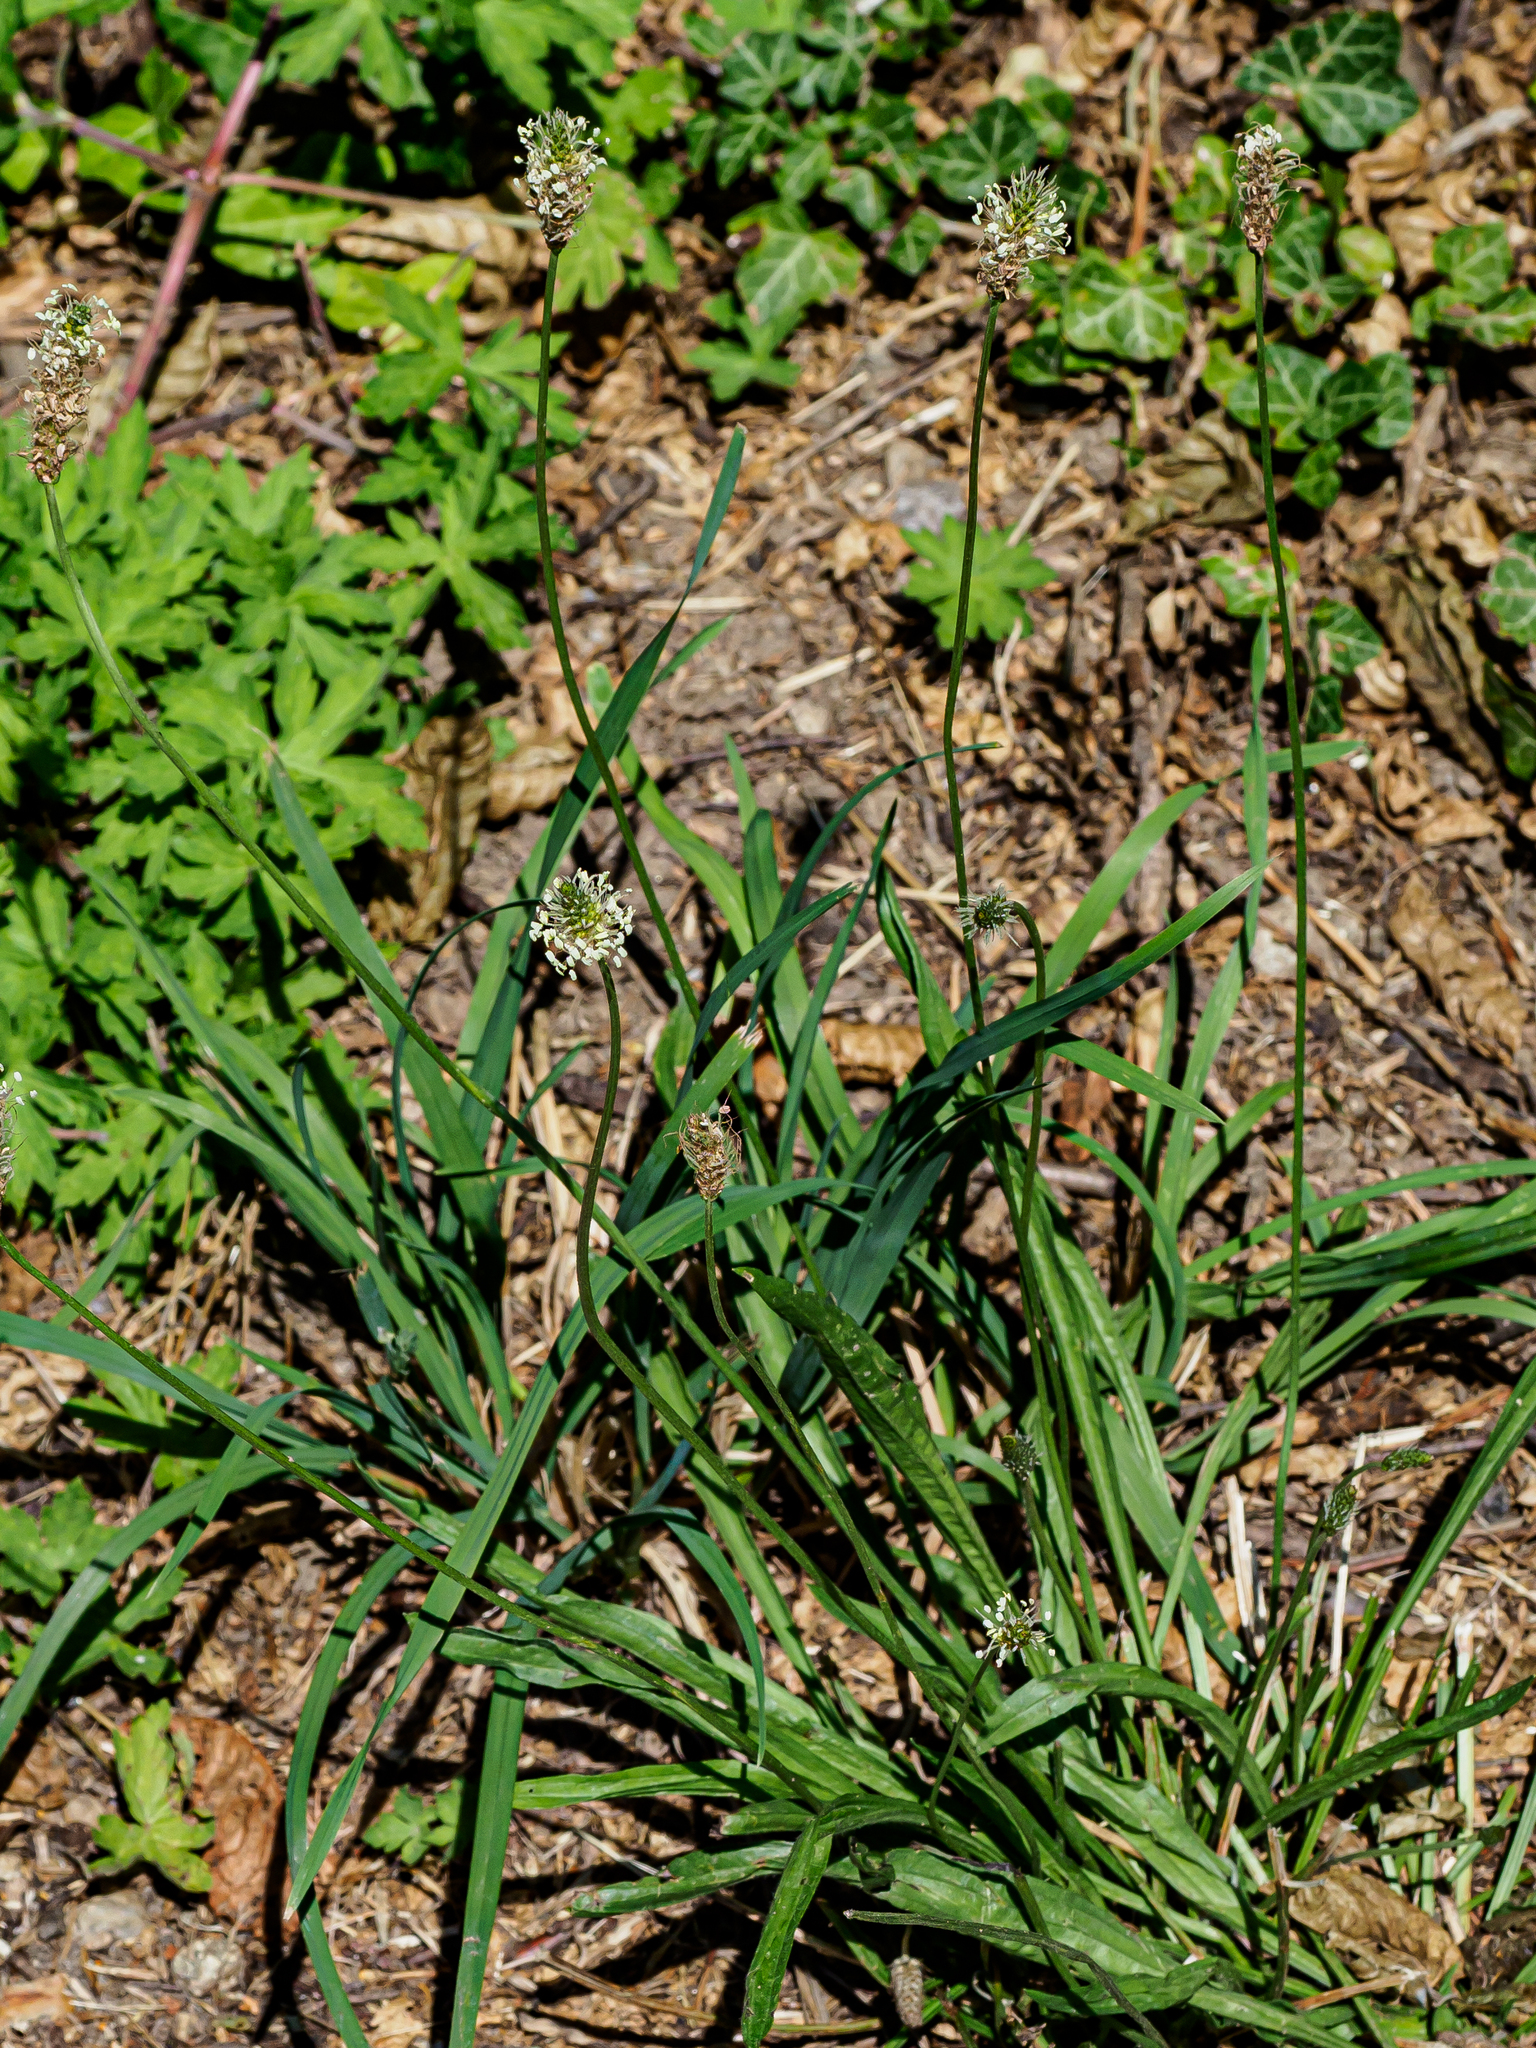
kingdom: Plantae
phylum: Tracheophyta
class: Magnoliopsida
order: Lamiales
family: Plantaginaceae
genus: Plantago
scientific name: Plantago lanceolata
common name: Ribwort plantain
